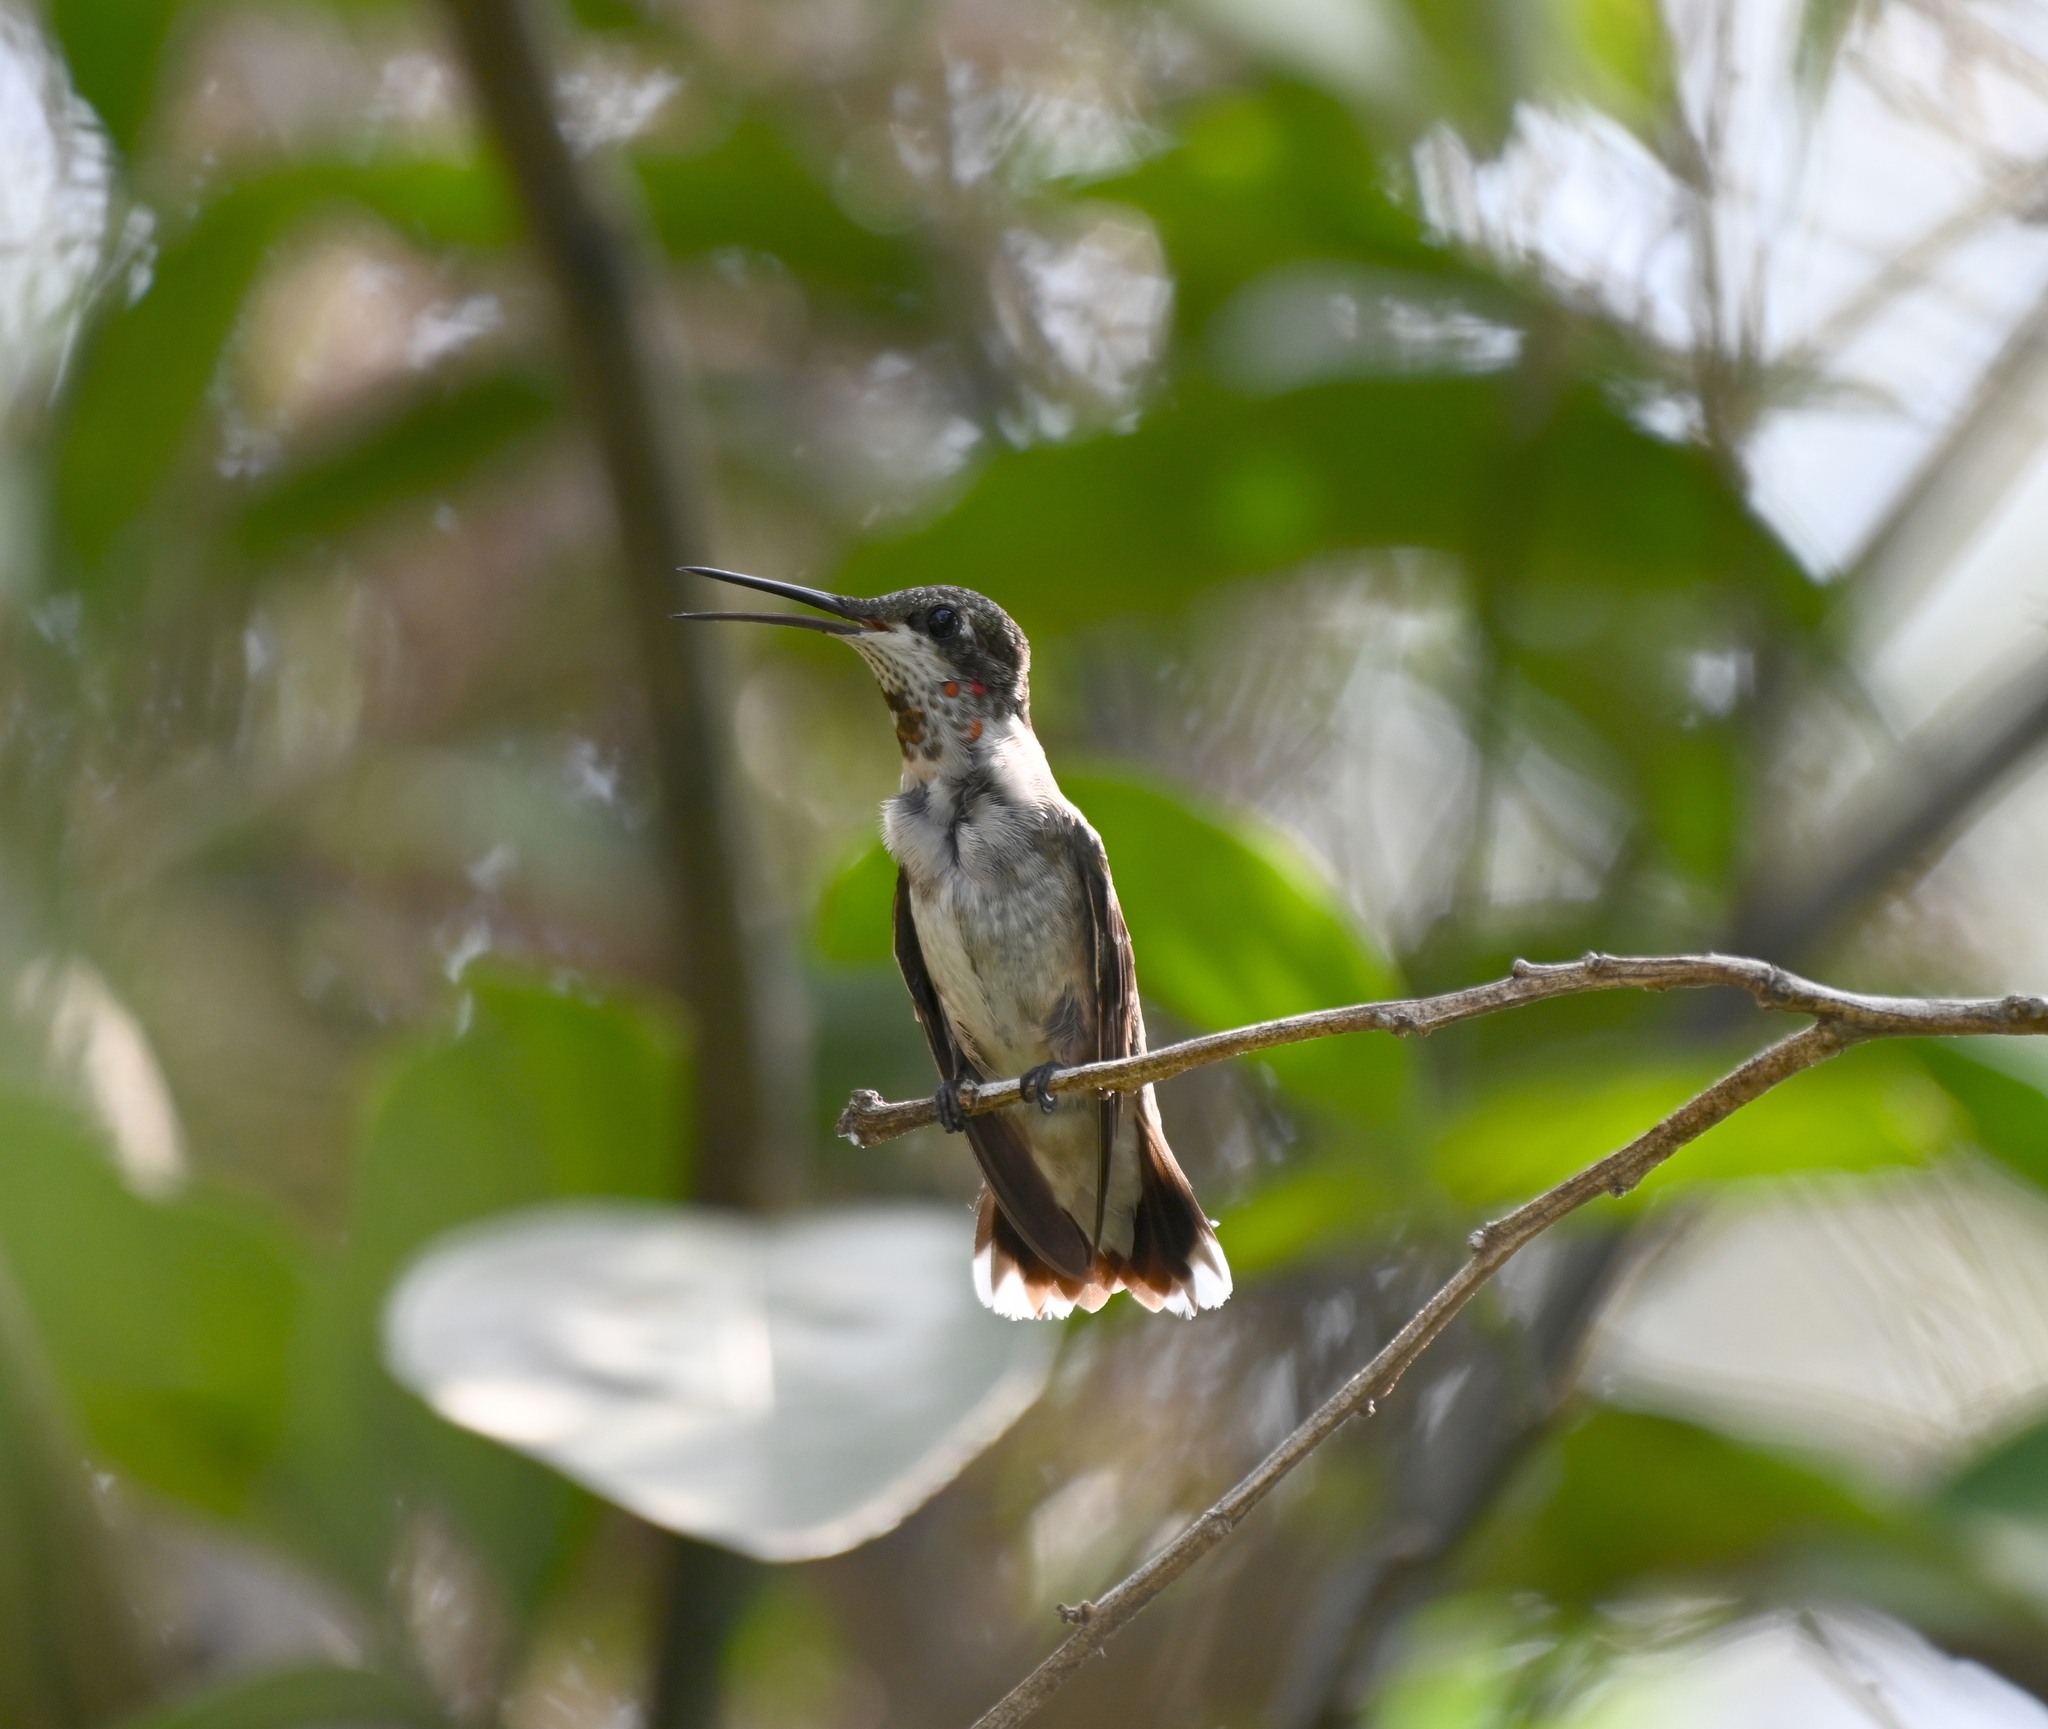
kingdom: Animalia
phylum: Chordata
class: Aves
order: Apodiformes
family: Trochilidae
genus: Archilochus
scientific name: Archilochus colubris
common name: Ruby-throated hummingbird
